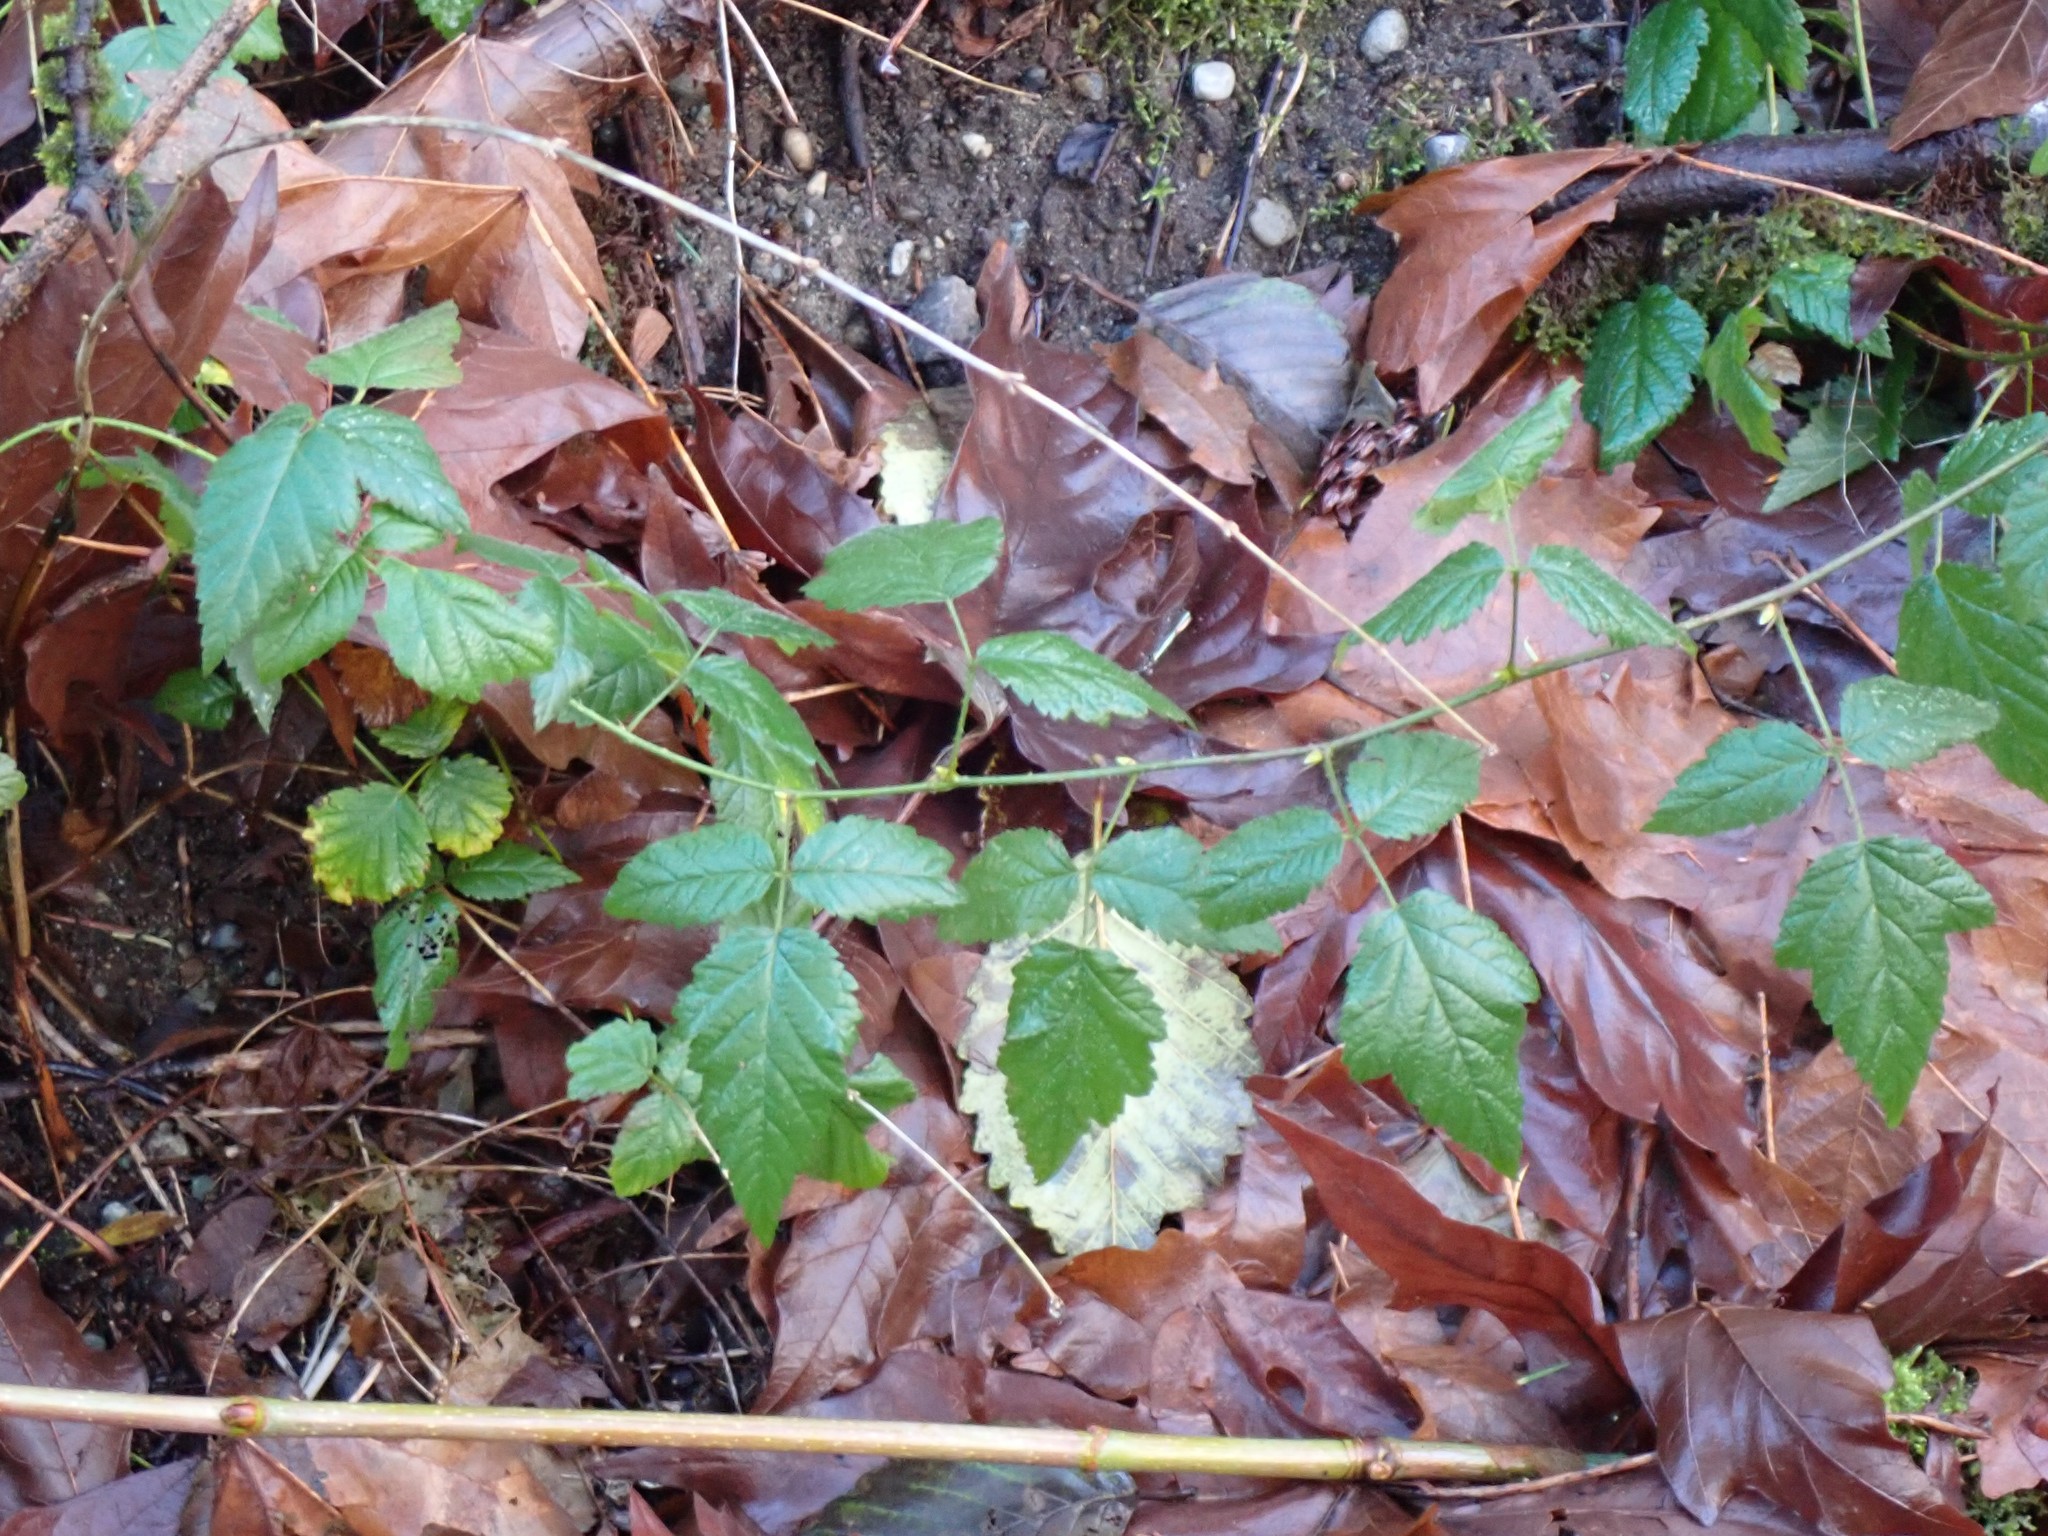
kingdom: Plantae
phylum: Tracheophyta
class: Magnoliopsida
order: Rosales
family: Rosaceae
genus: Rubus
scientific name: Rubus ursinus
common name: Pacific blackberry
